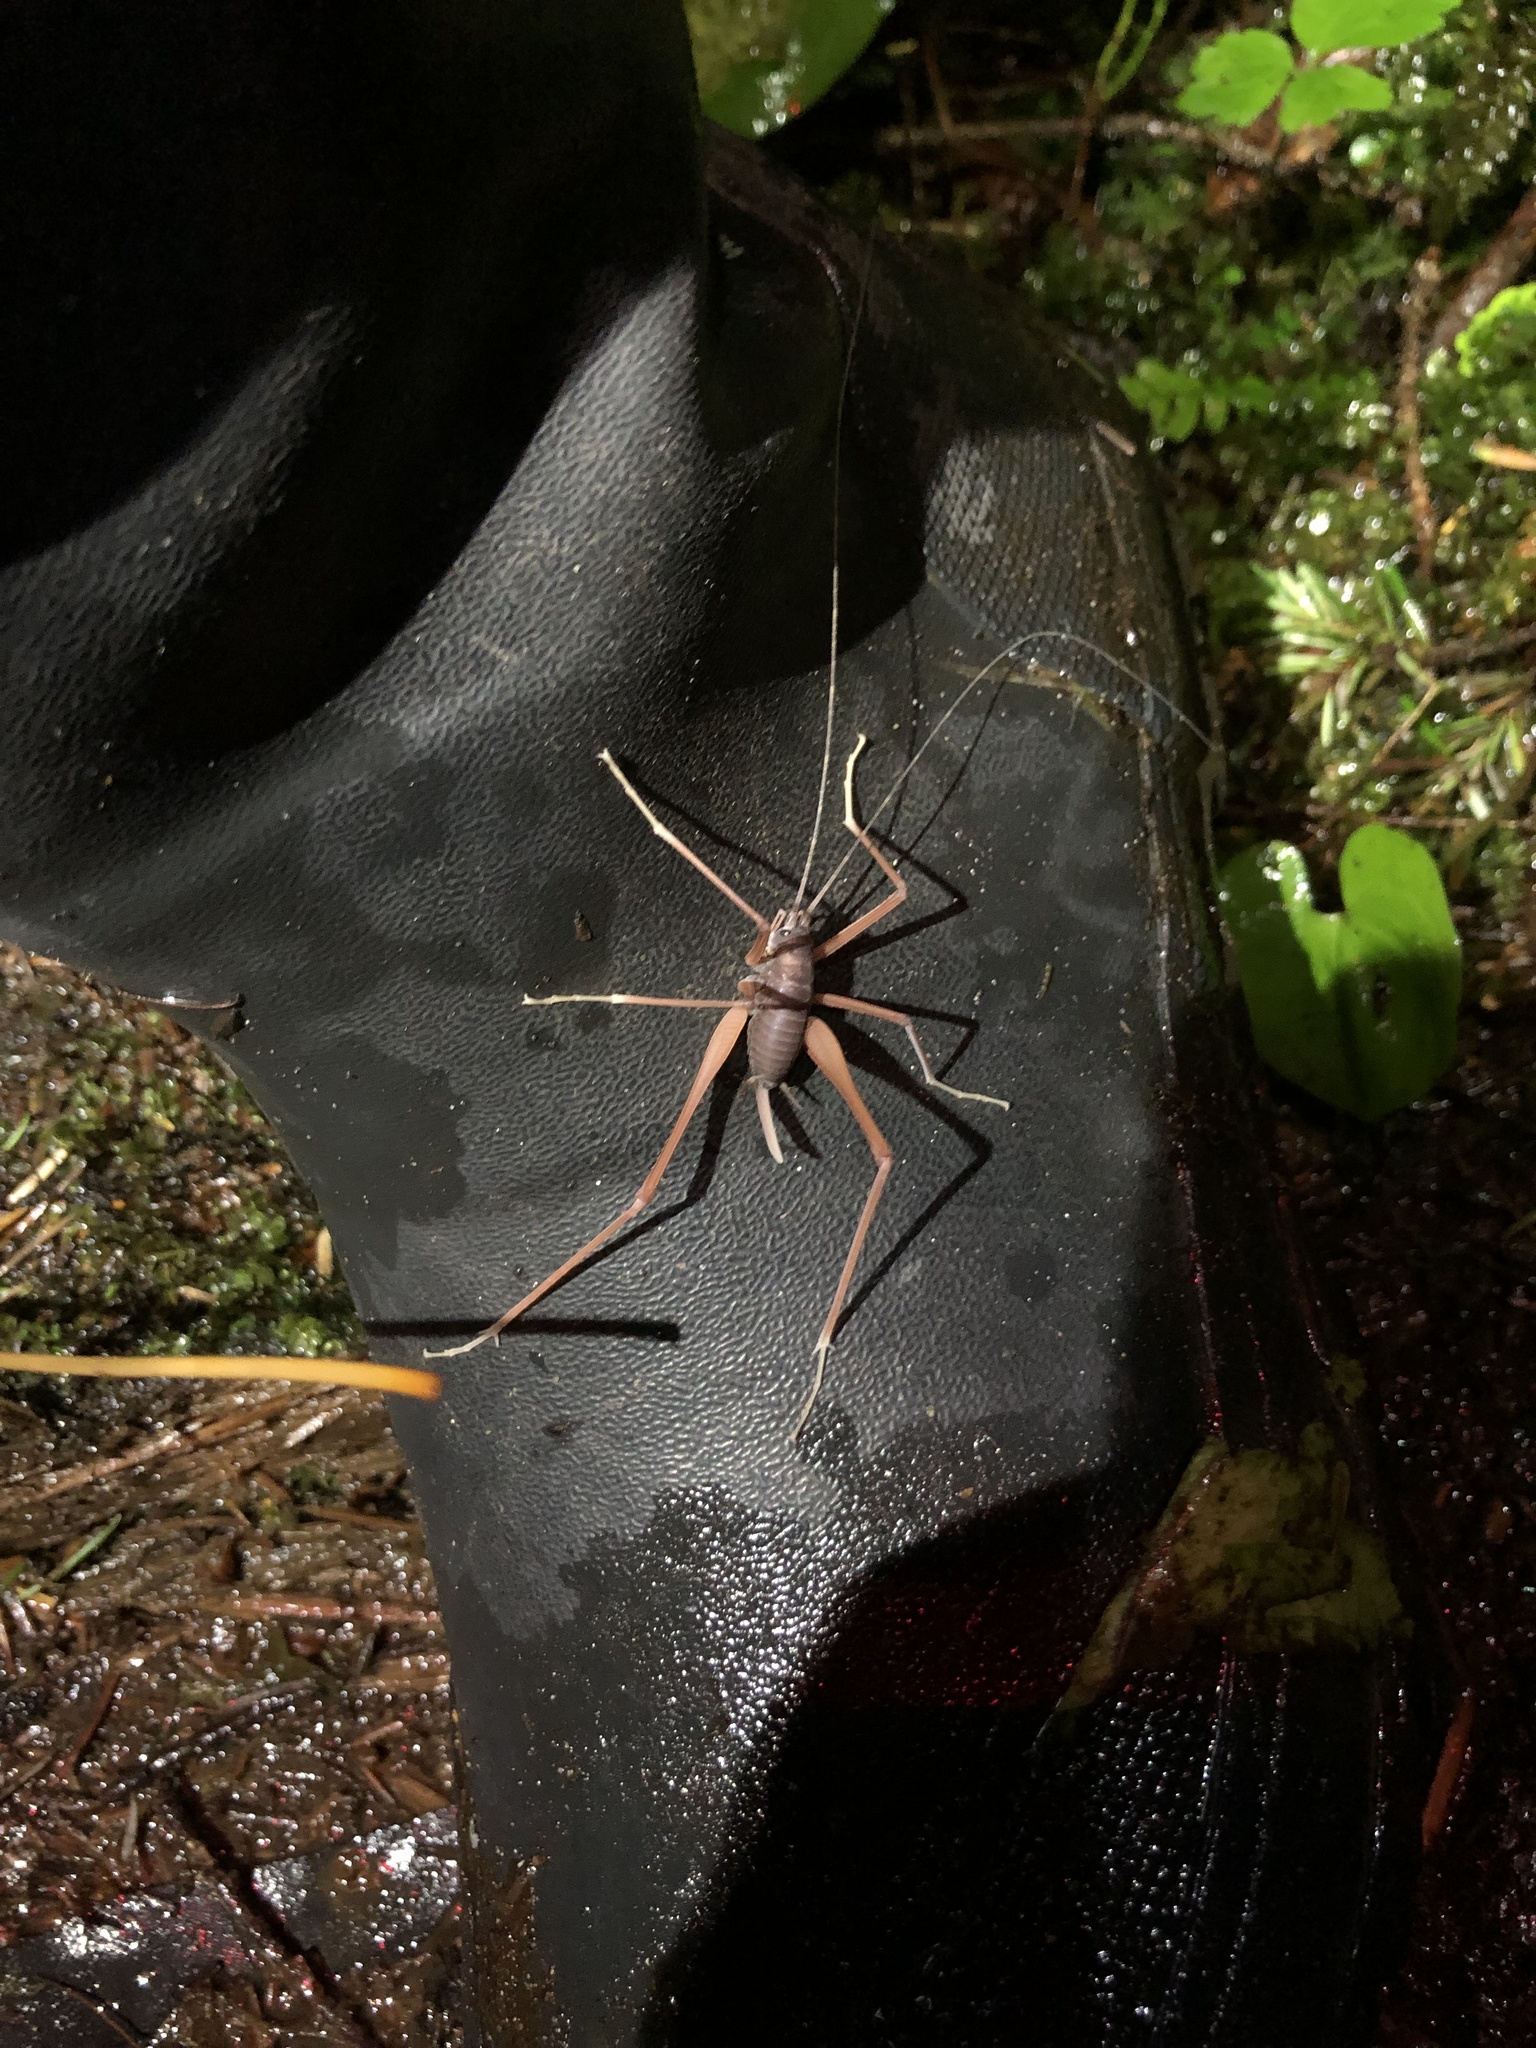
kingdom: Animalia
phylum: Arthropoda
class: Insecta
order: Orthoptera
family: Rhaphidophoridae
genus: Tropidischia
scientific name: Tropidischia xanthostoma
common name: Square-legged camel cricket
